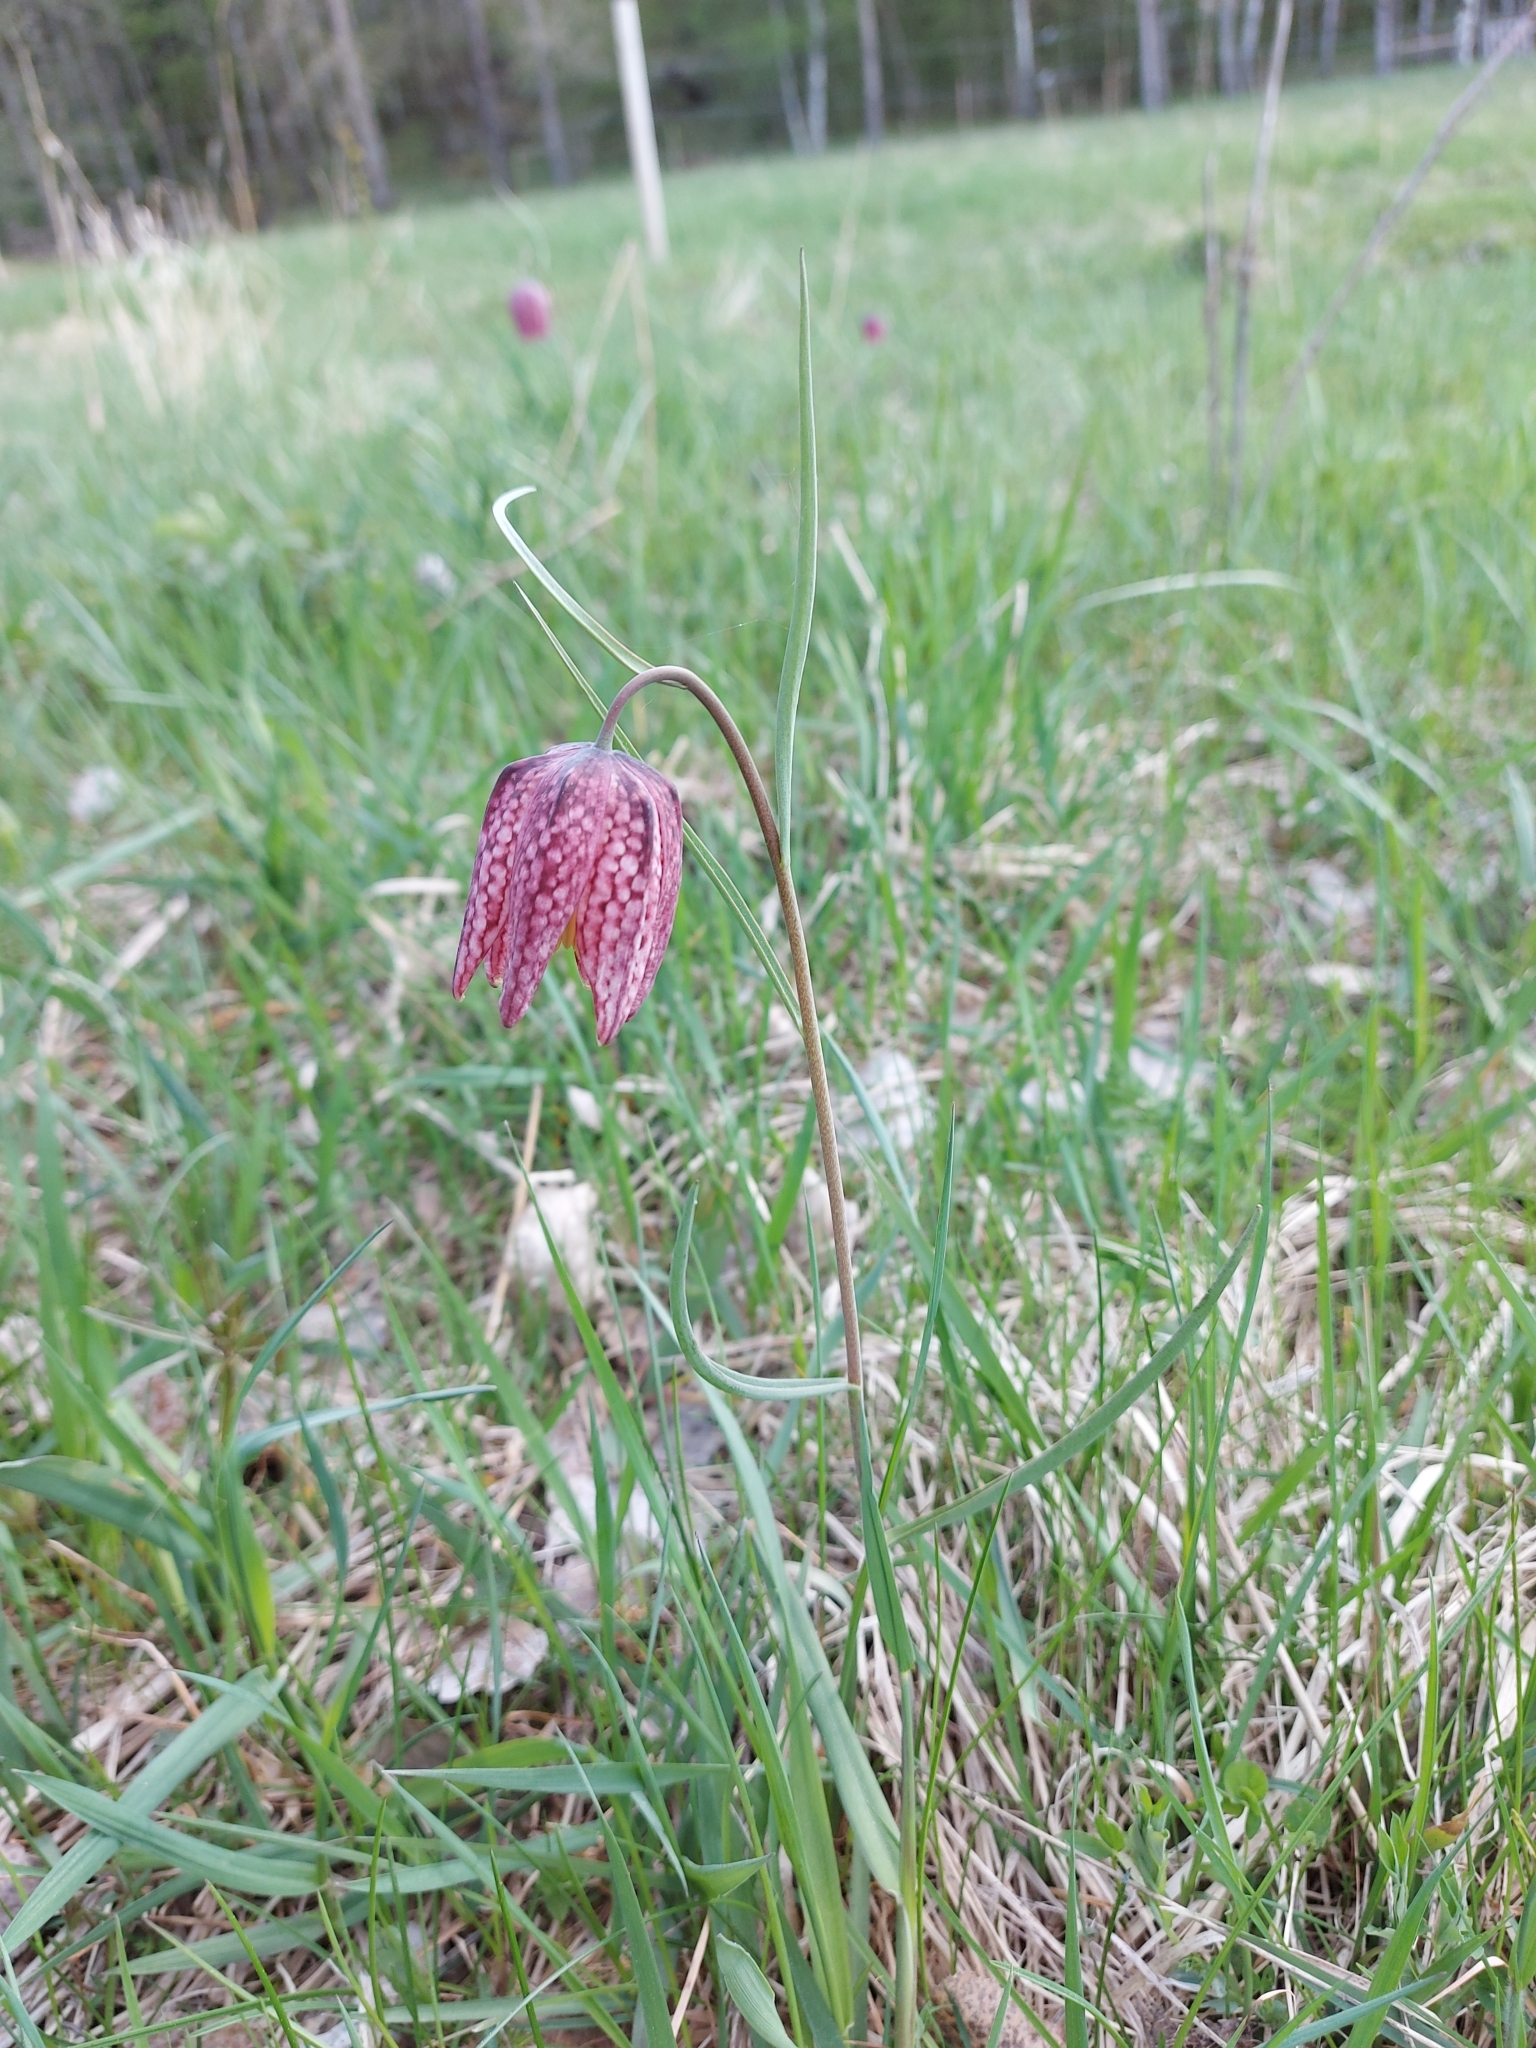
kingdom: Plantae
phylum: Tracheophyta
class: Liliopsida
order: Liliales
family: Liliaceae
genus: Fritillaria
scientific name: Fritillaria meleagris
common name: Fritillary
